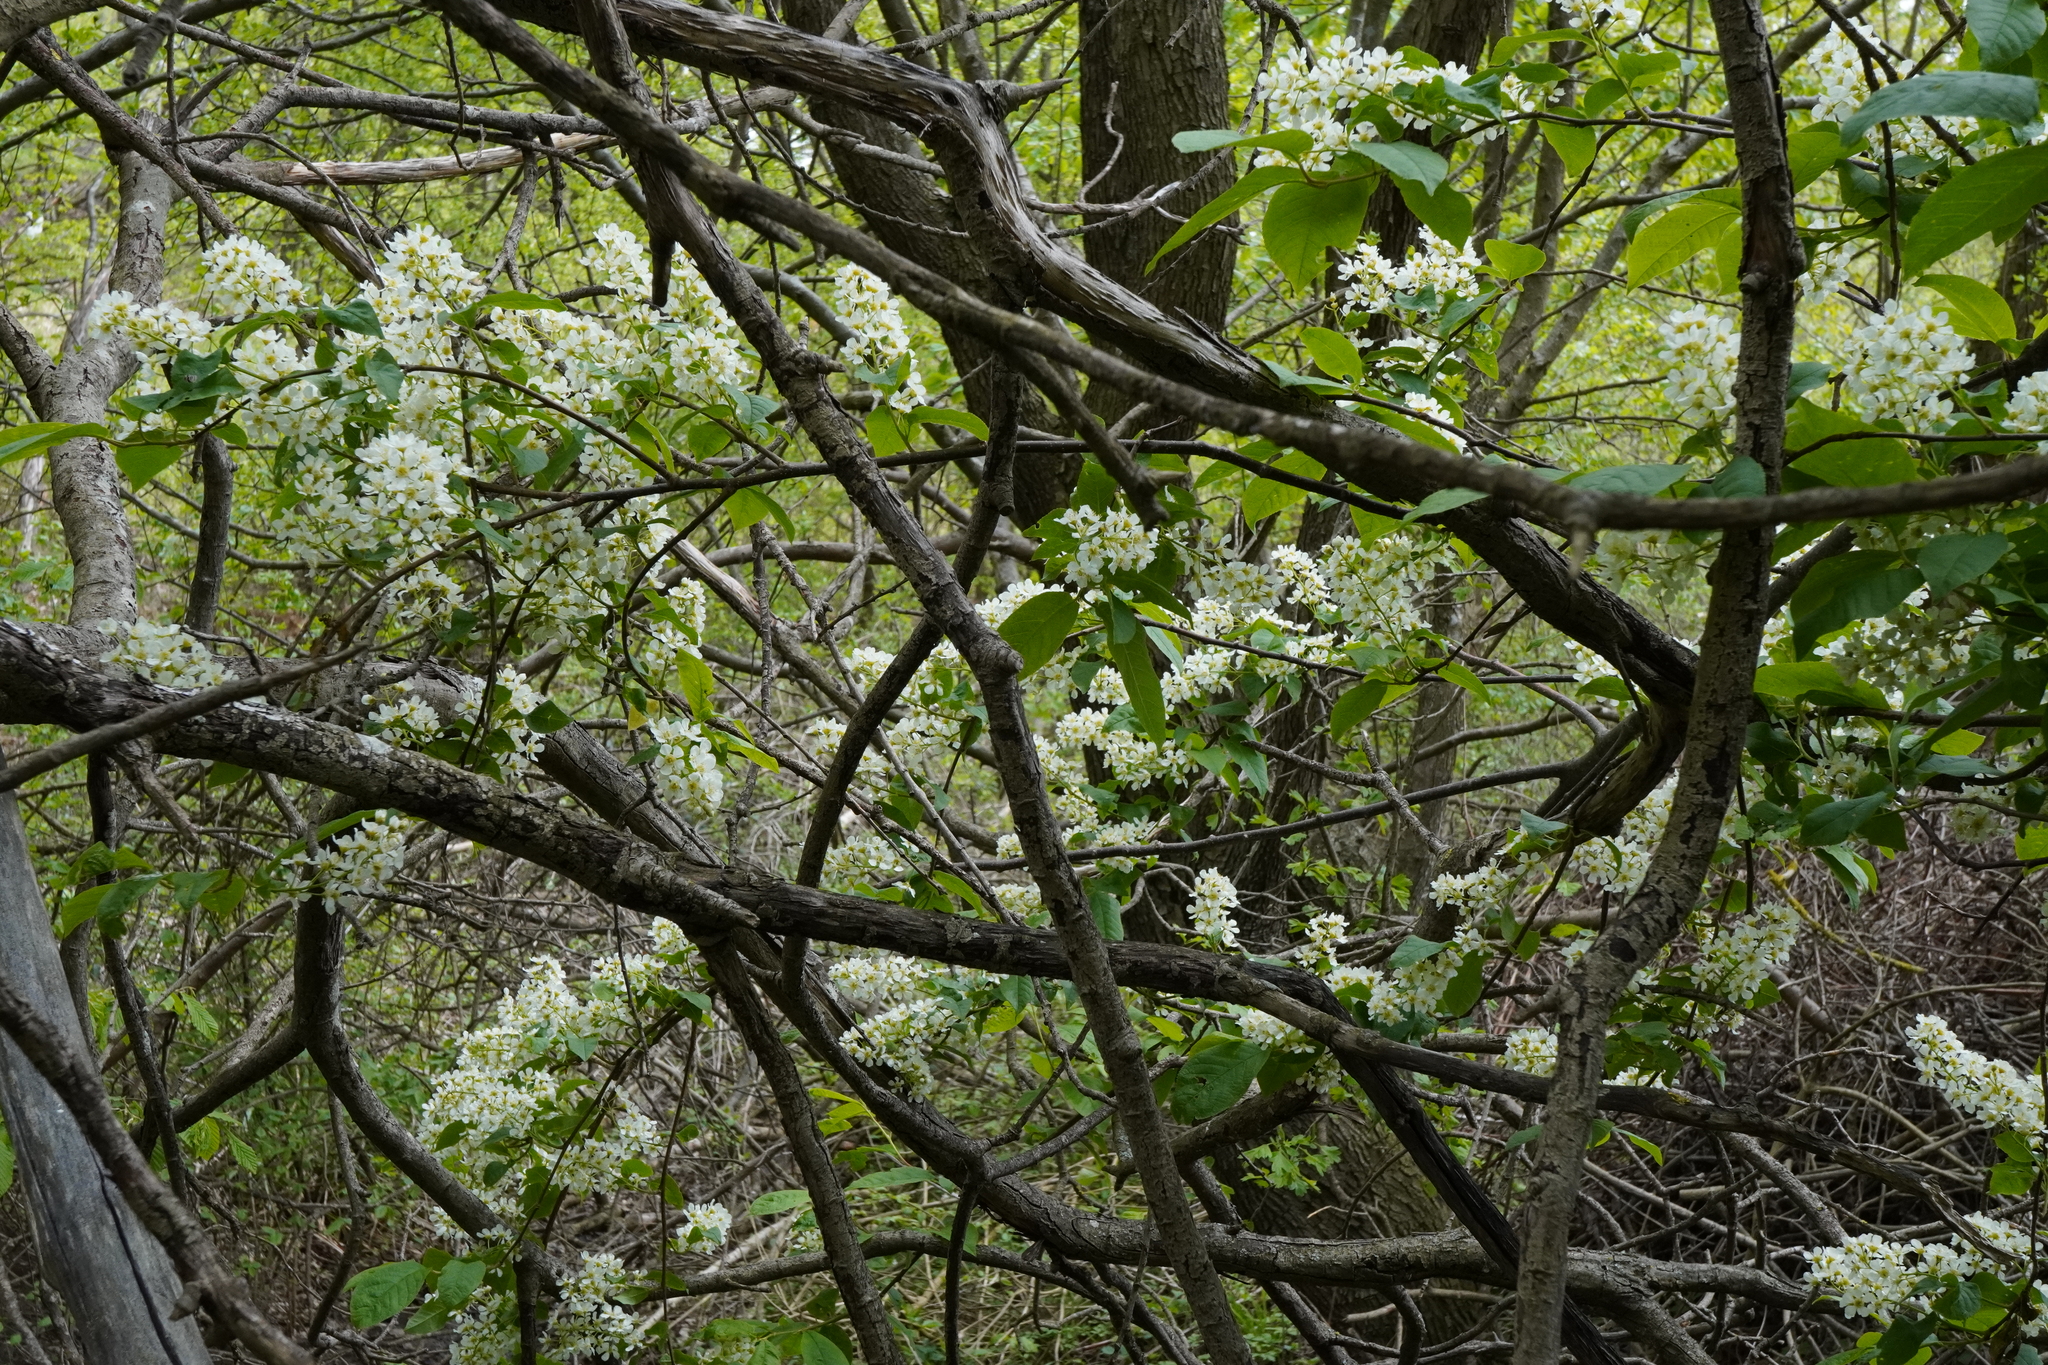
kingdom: Plantae
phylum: Tracheophyta
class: Magnoliopsida
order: Rosales
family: Rosaceae
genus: Prunus
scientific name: Prunus padus
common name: Bird cherry
